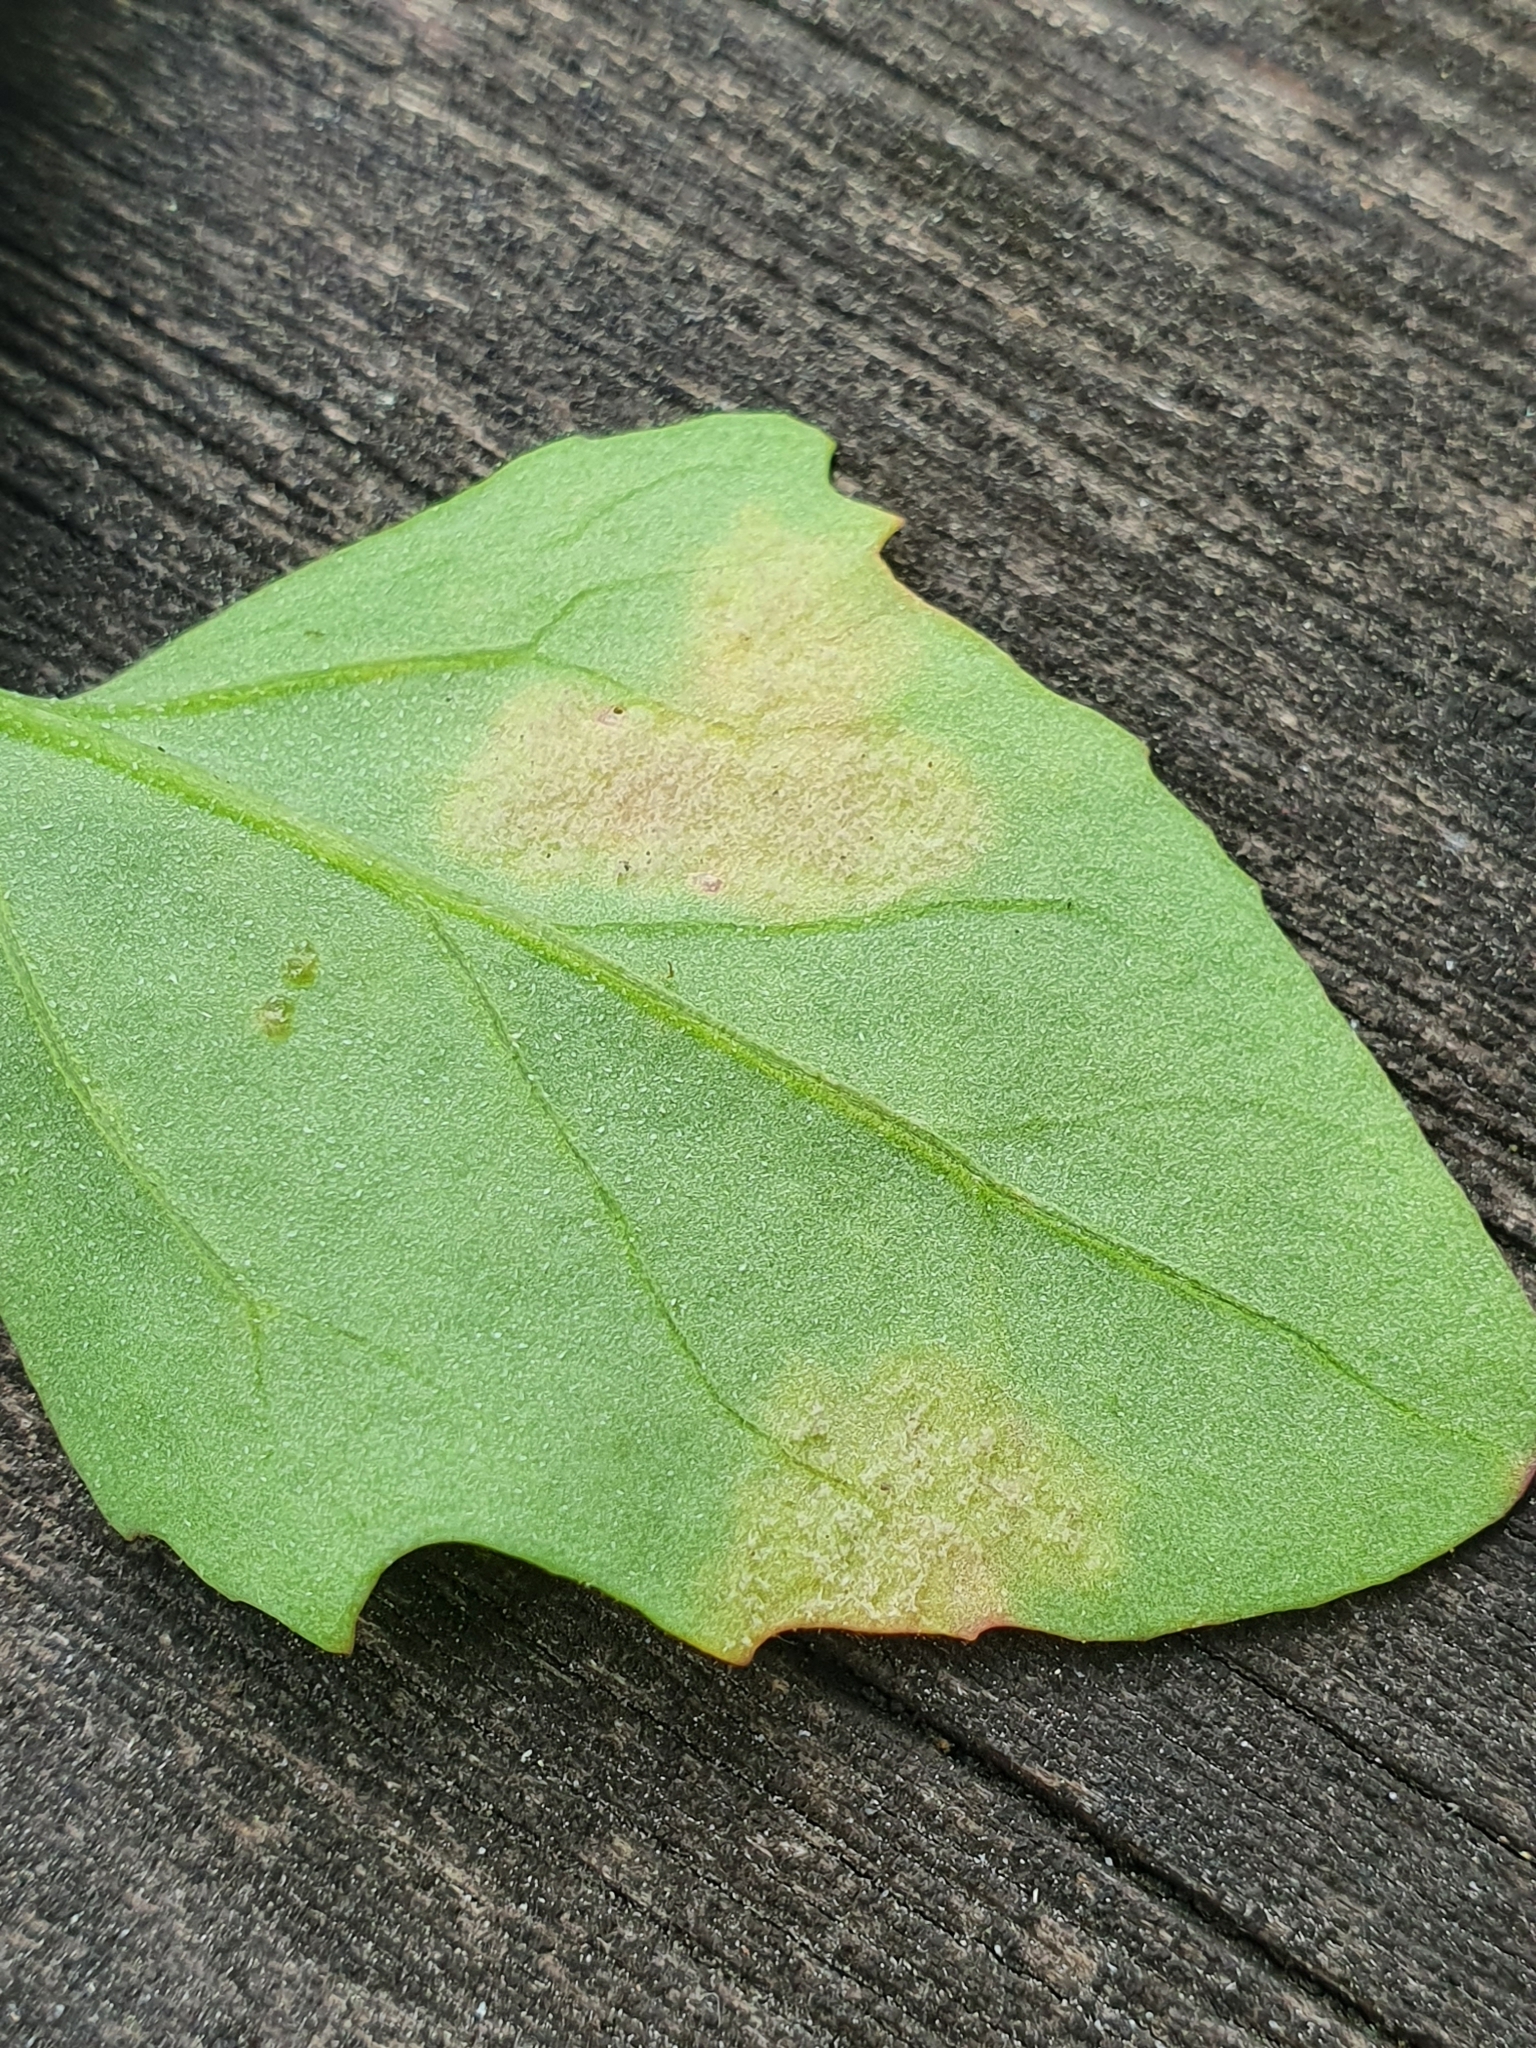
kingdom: Chromista
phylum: Oomycota
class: Peronosporea
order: Peronosporales
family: Peronosporaceae
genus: Peronospora
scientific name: Peronospora farinosa
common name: Beet downy mildew
